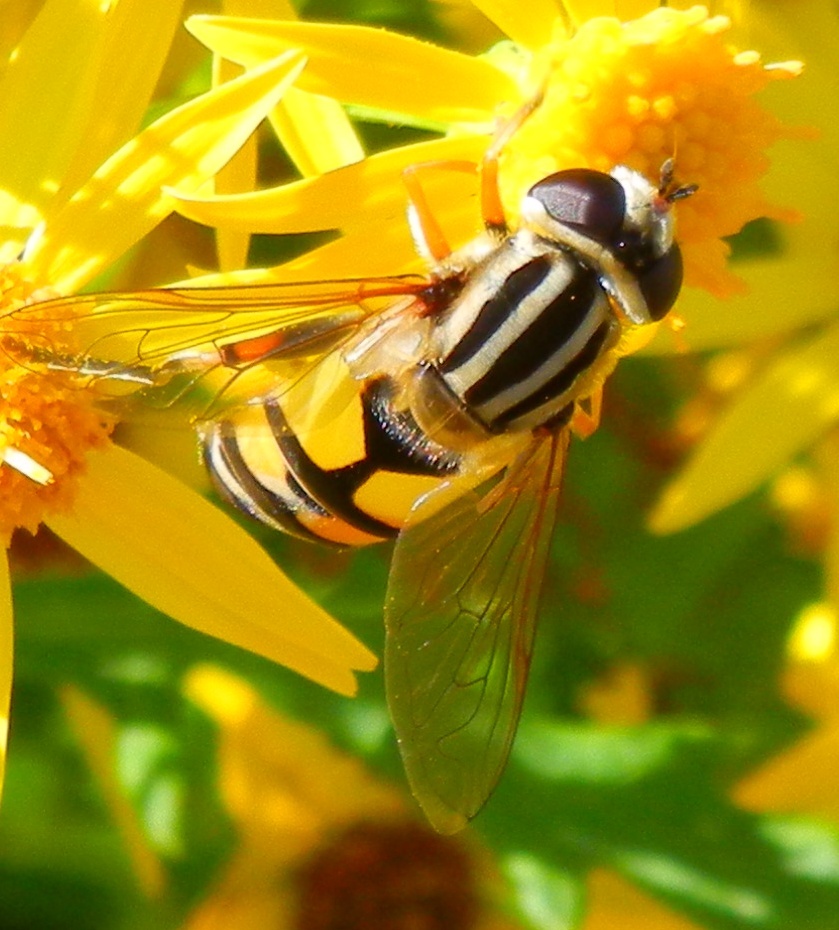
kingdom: Animalia
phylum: Arthropoda
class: Insecta
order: Diptera
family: Syrphidae
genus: Helophilus
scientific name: Helophilus trivittatus
